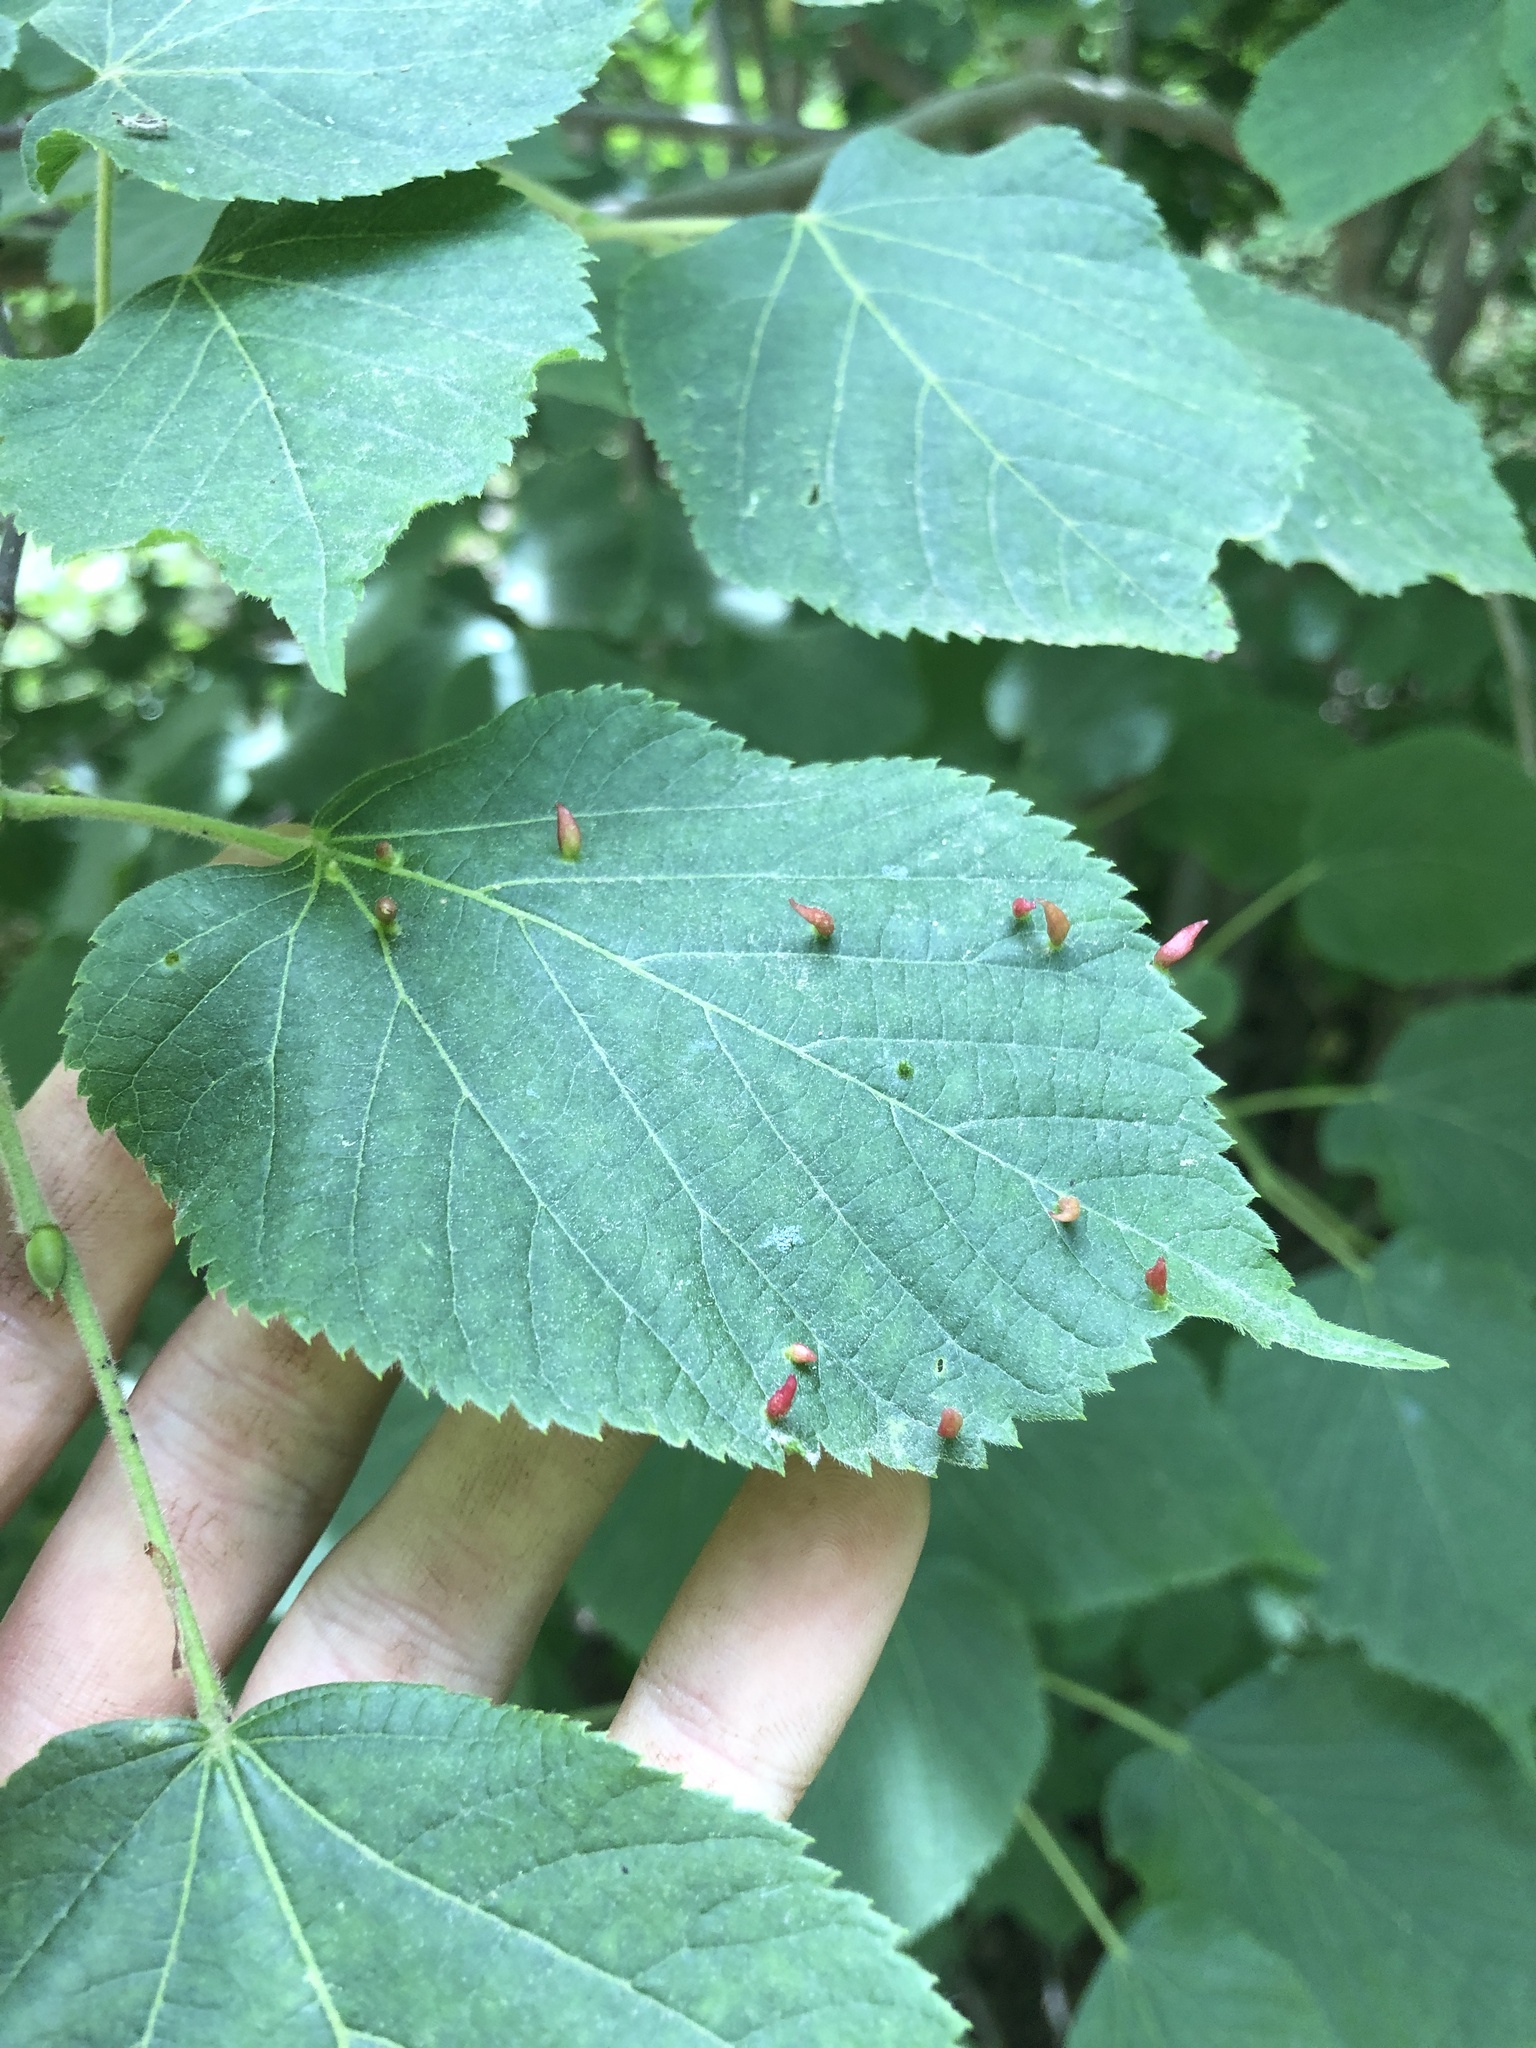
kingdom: Animalia
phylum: Arthropoda
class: Arachnida
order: Trombidiformes
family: Eriophyidae
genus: Eriophyes
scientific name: Eriophyes tiliae
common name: Red nail gall mite
